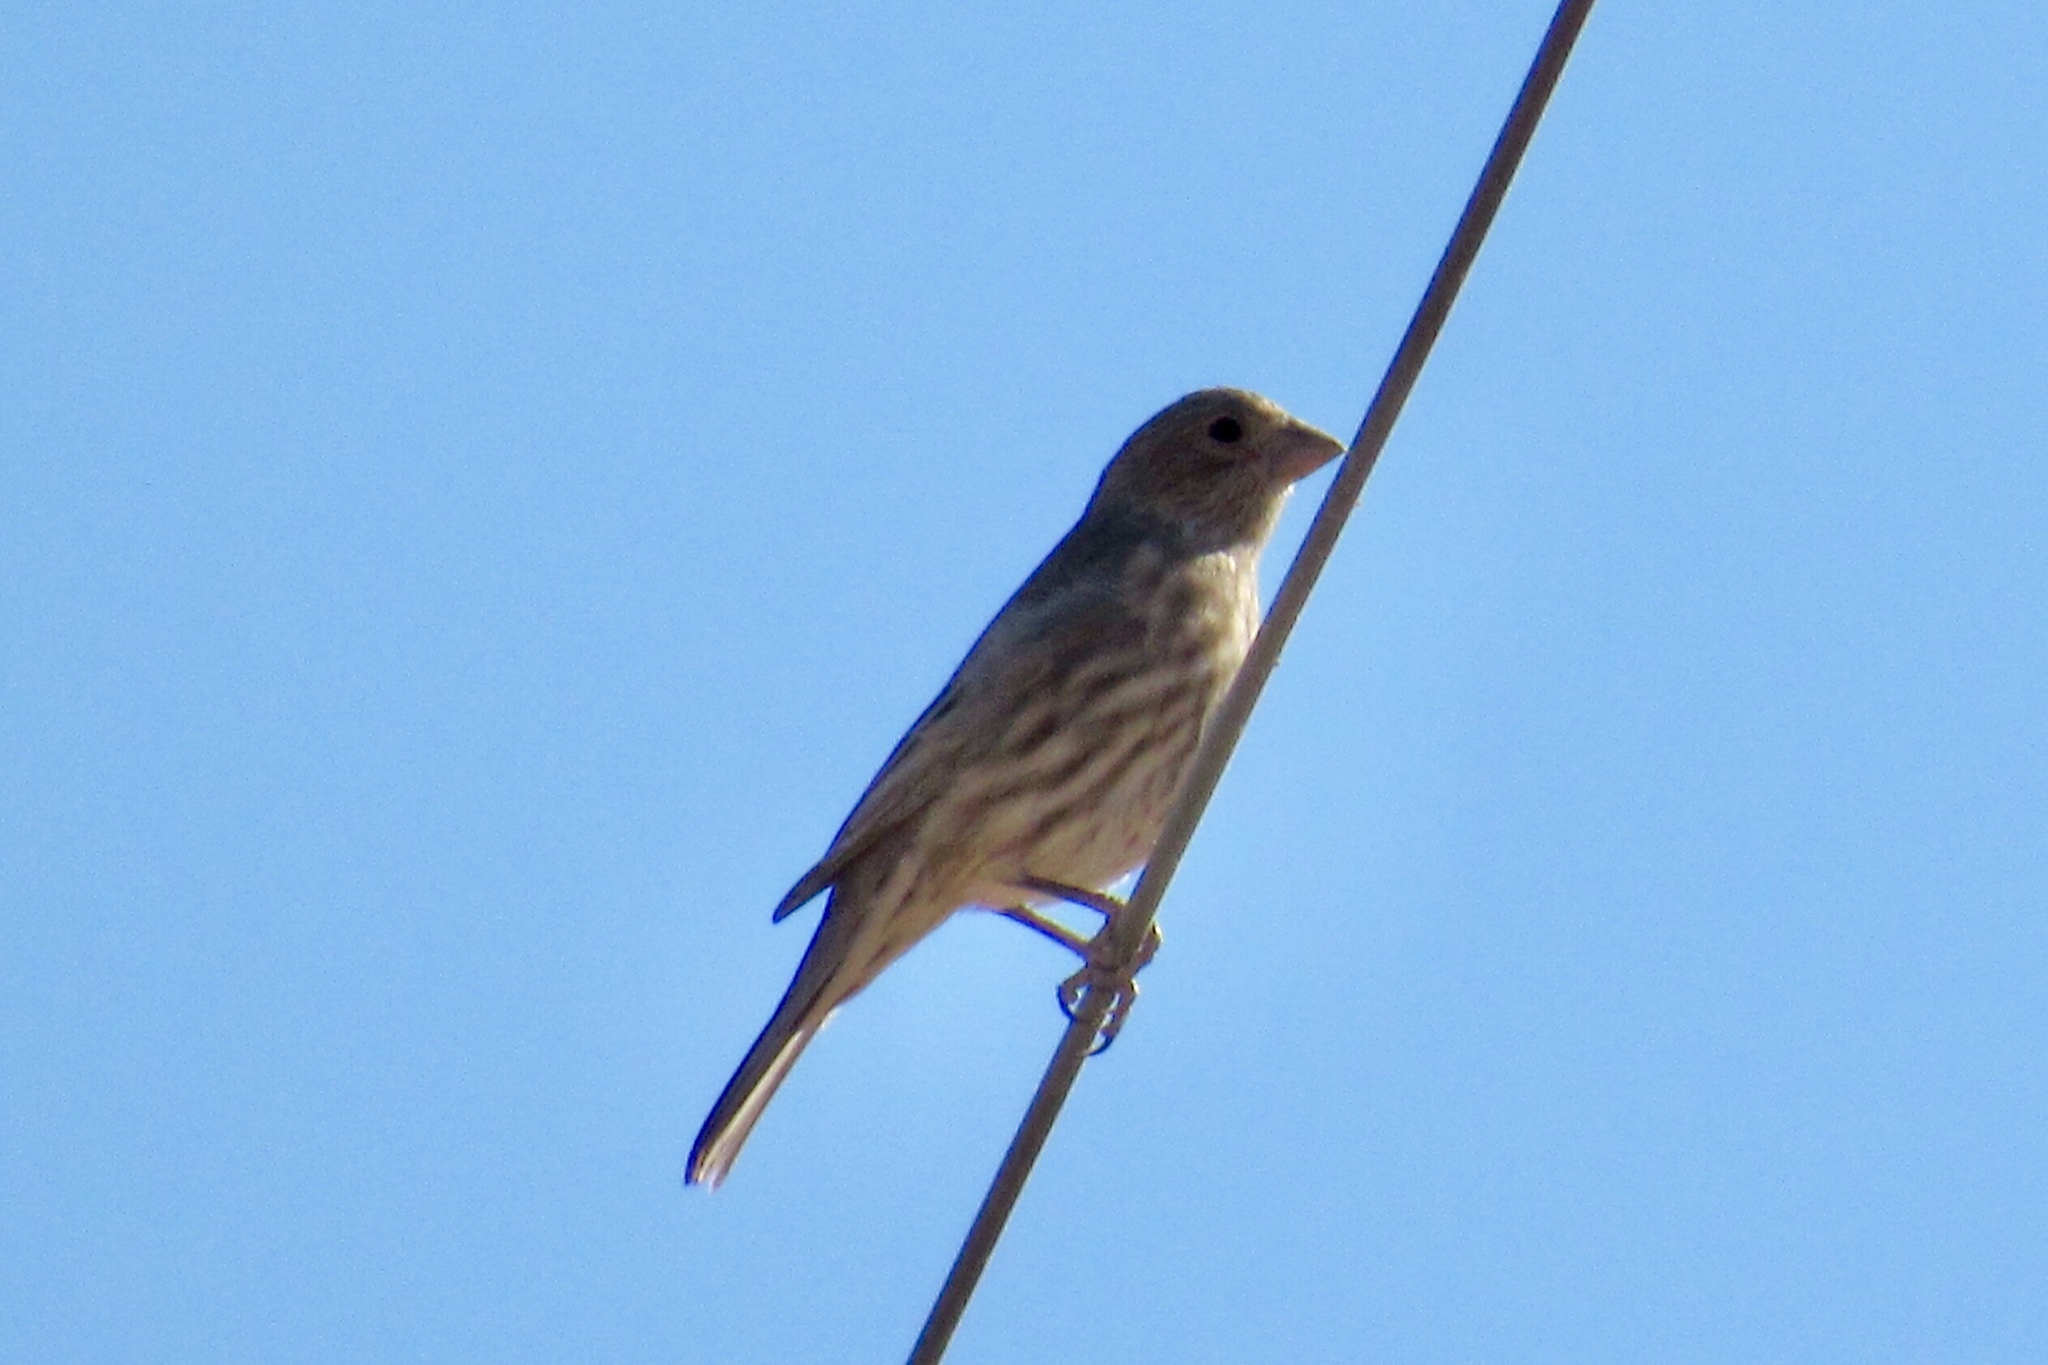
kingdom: Animalia
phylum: Chordata
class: Aves
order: Passeriformes
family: Fringillidae
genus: Haemorhous
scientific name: Haemorhous mexicanus
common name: House finch
